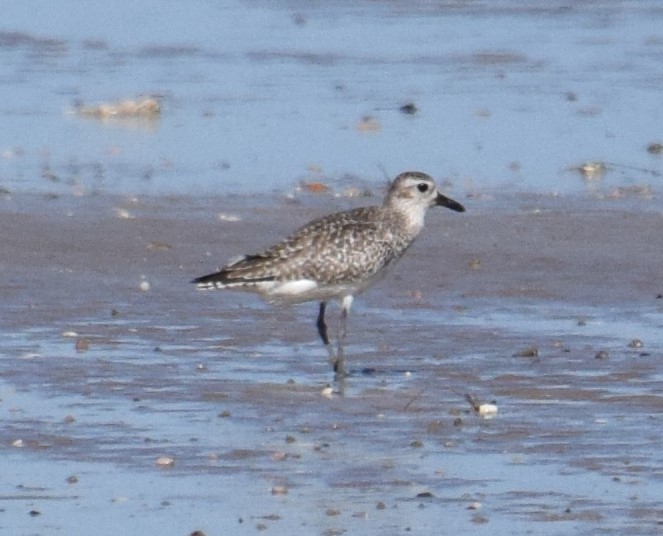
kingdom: Animalia
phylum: Chordata
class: Aves
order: Charadriiformes
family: Charadriidae
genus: Pluvialis
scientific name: Pluvialis squatarola
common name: Grey plover
